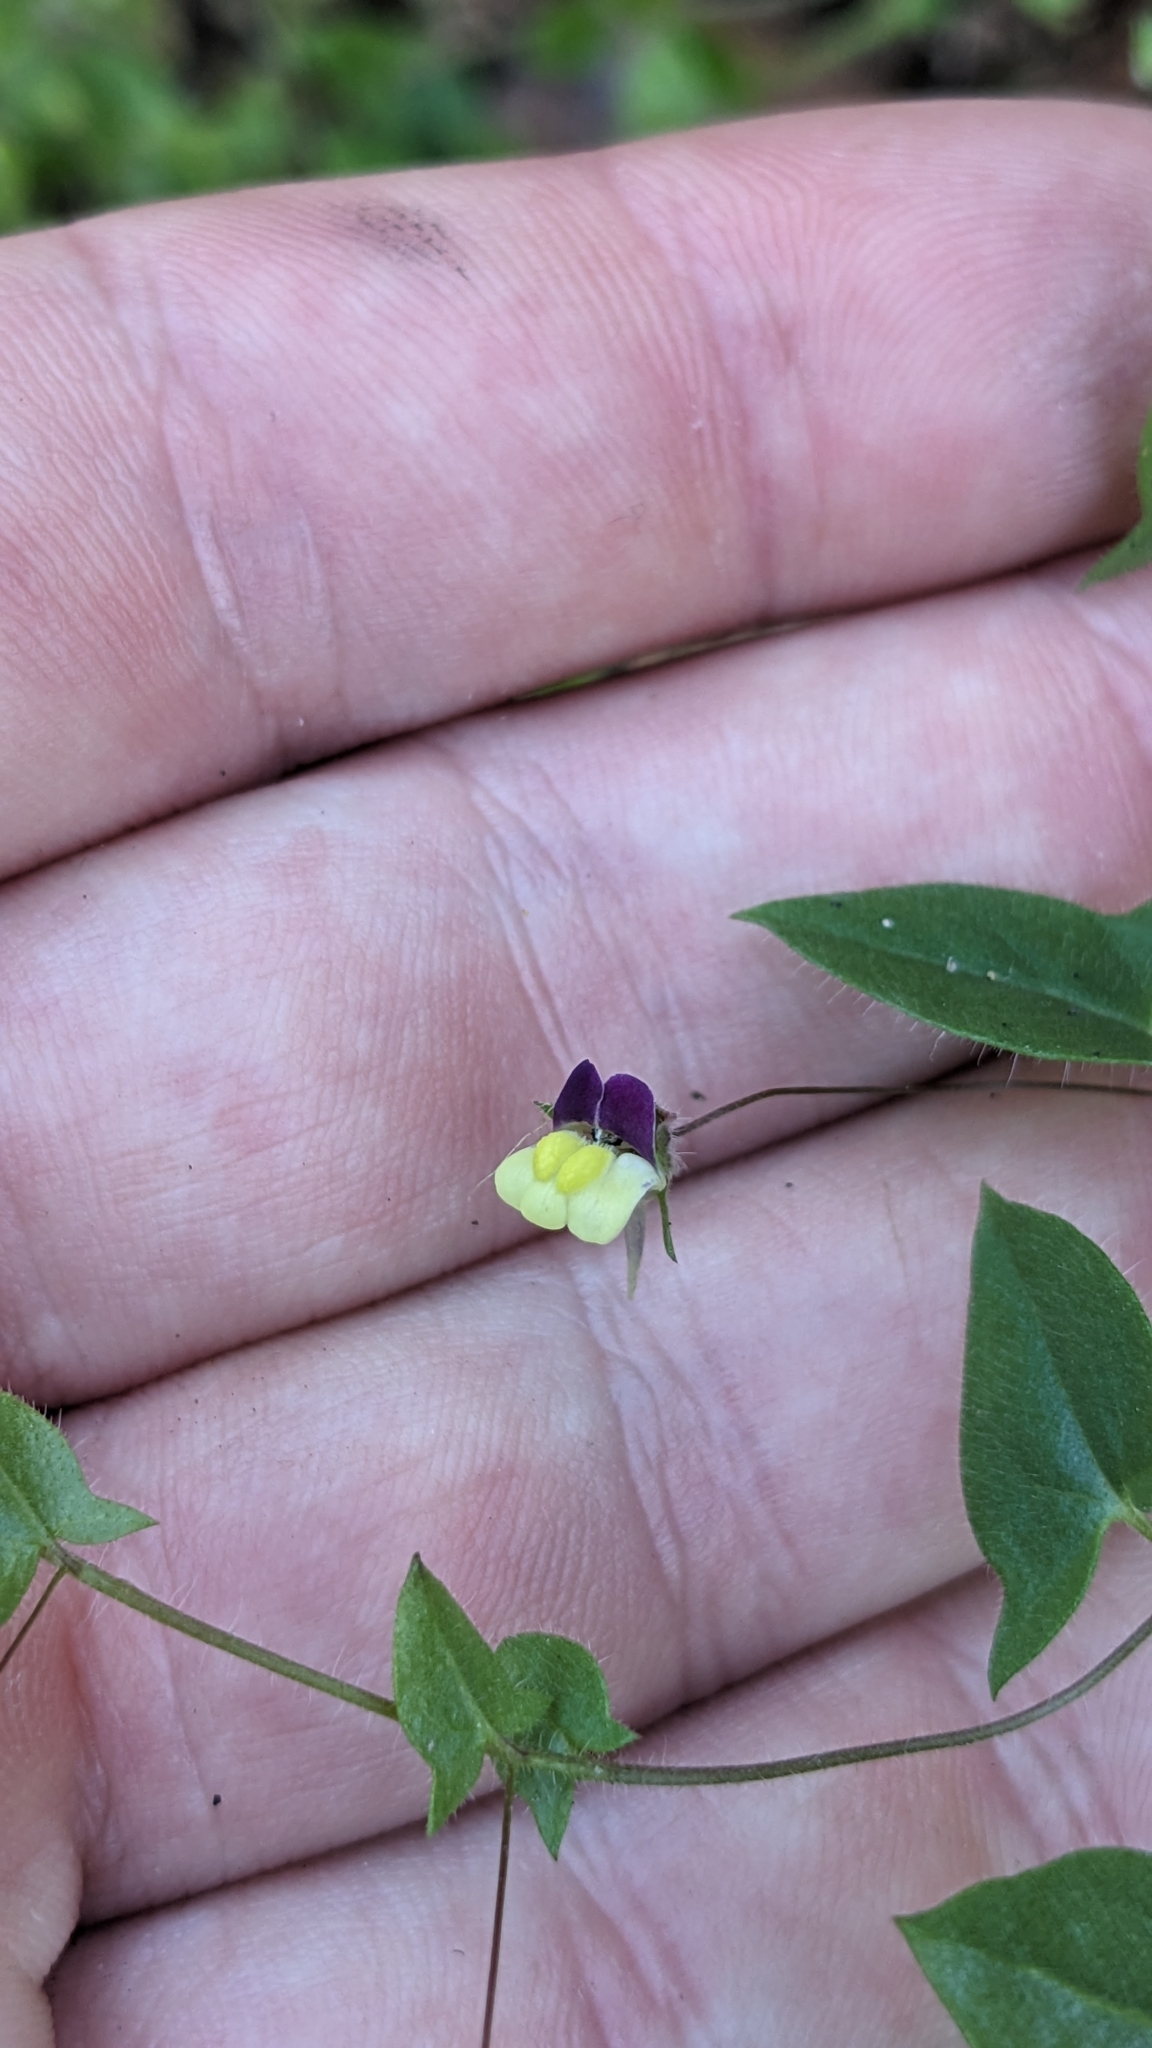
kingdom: Plantae
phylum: Tracheophyta
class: Magnoliopsida
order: Lamiales
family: Plantaginaceae
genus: Kickxia
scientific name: Kickxia elatine
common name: Sharp-leaved fluellen
